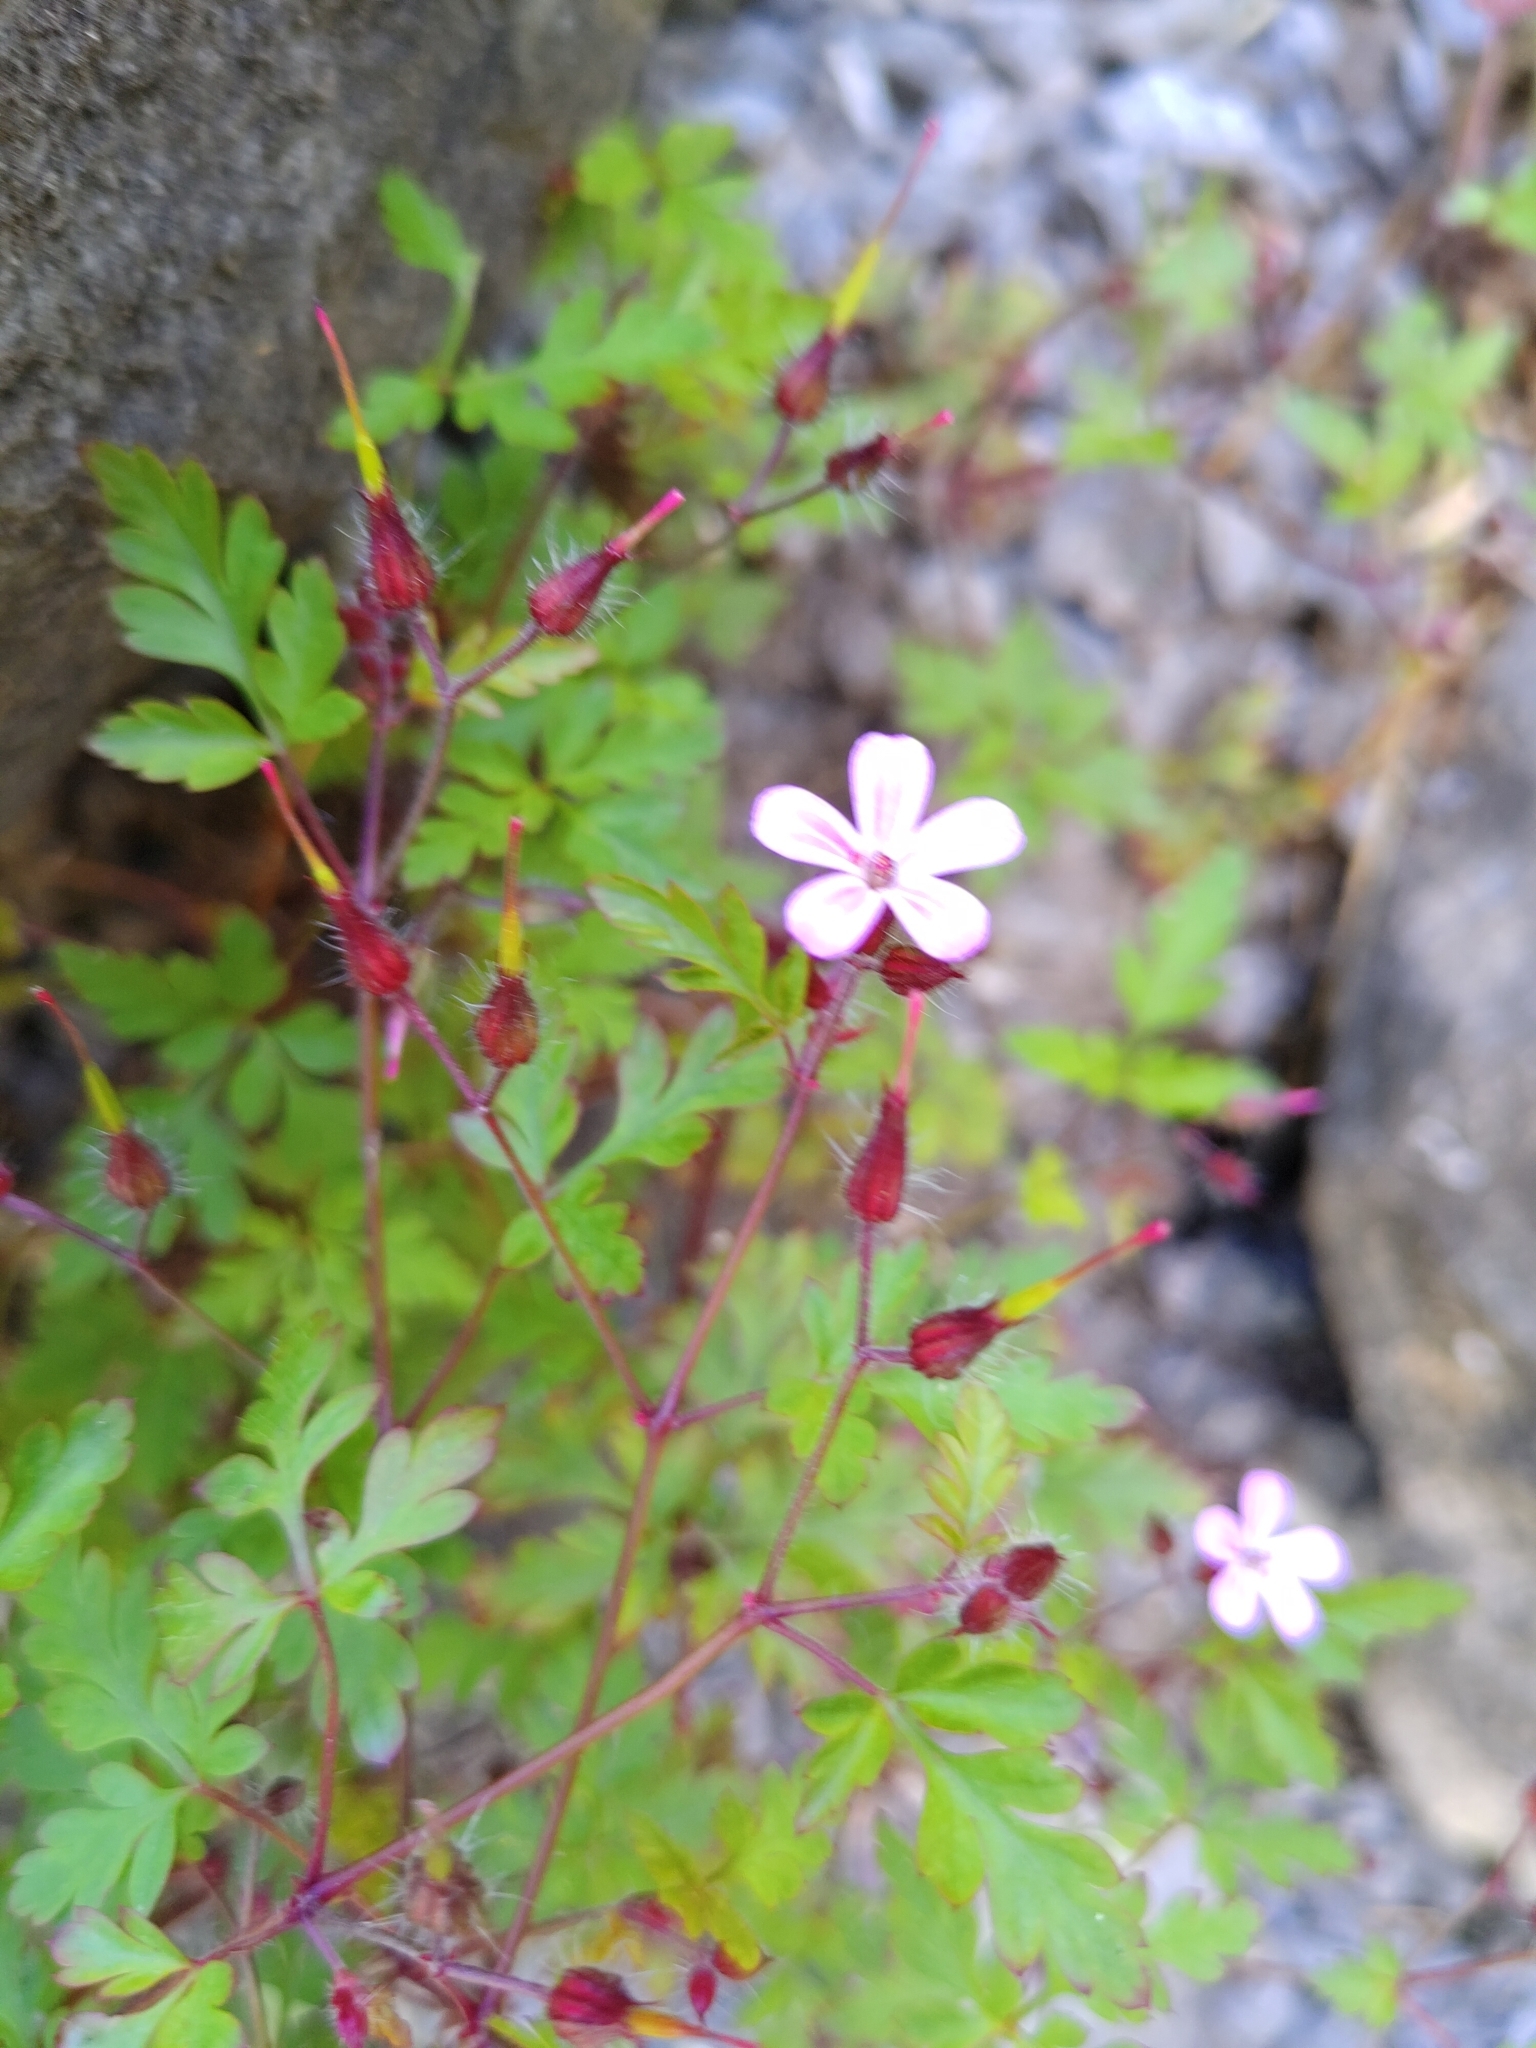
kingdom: Plantae
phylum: Tracheophyta
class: Magnoliopsida
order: Geraniales
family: Geraniaceae
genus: Geranium
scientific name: Geranium robertianum
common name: Herb-robert
